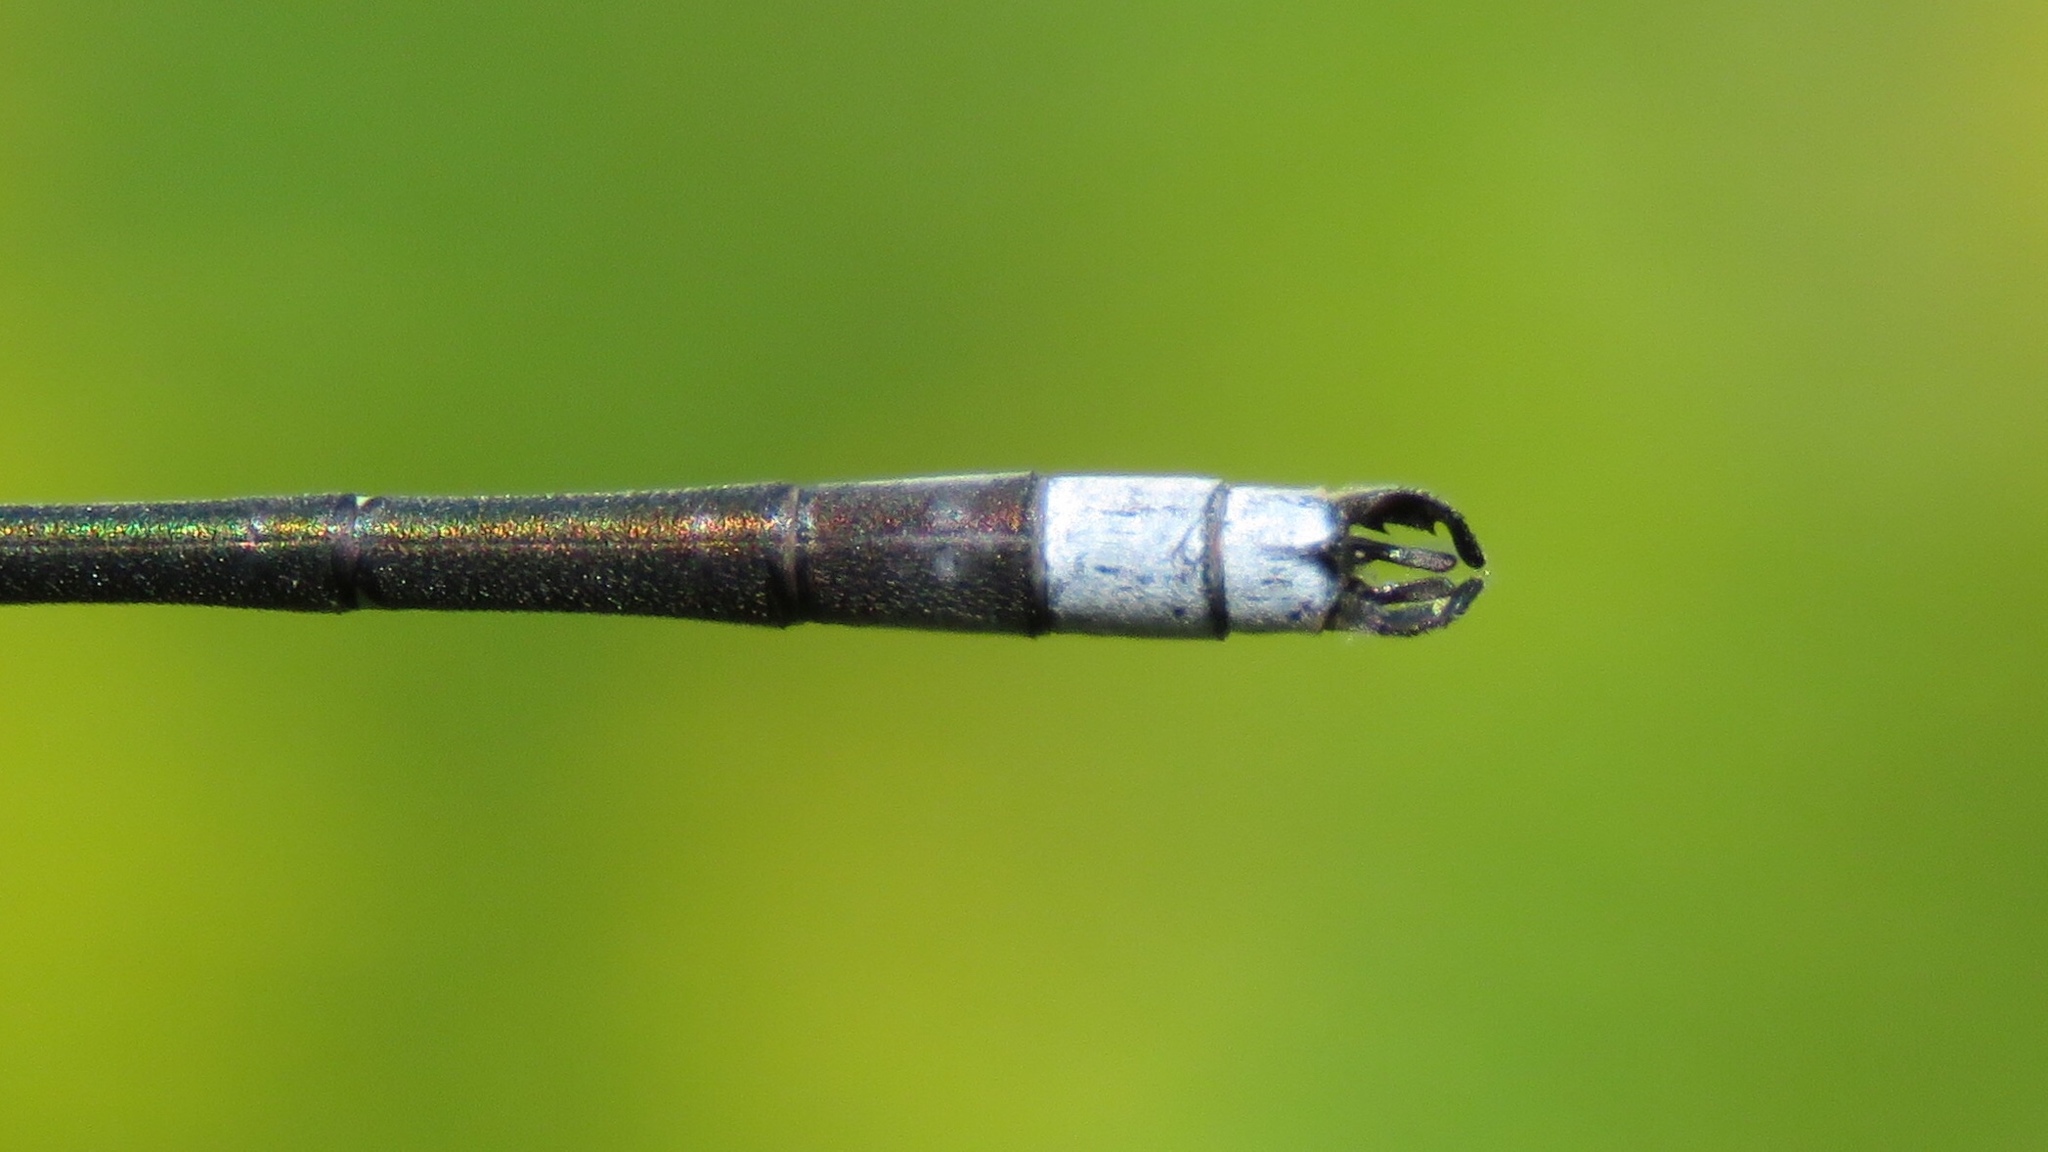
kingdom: Animalia
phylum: Arthropoda
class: Insecta
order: Odonata
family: Lestidae
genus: Lestes
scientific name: Lestes disjunctus
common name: Northern spreadwing
